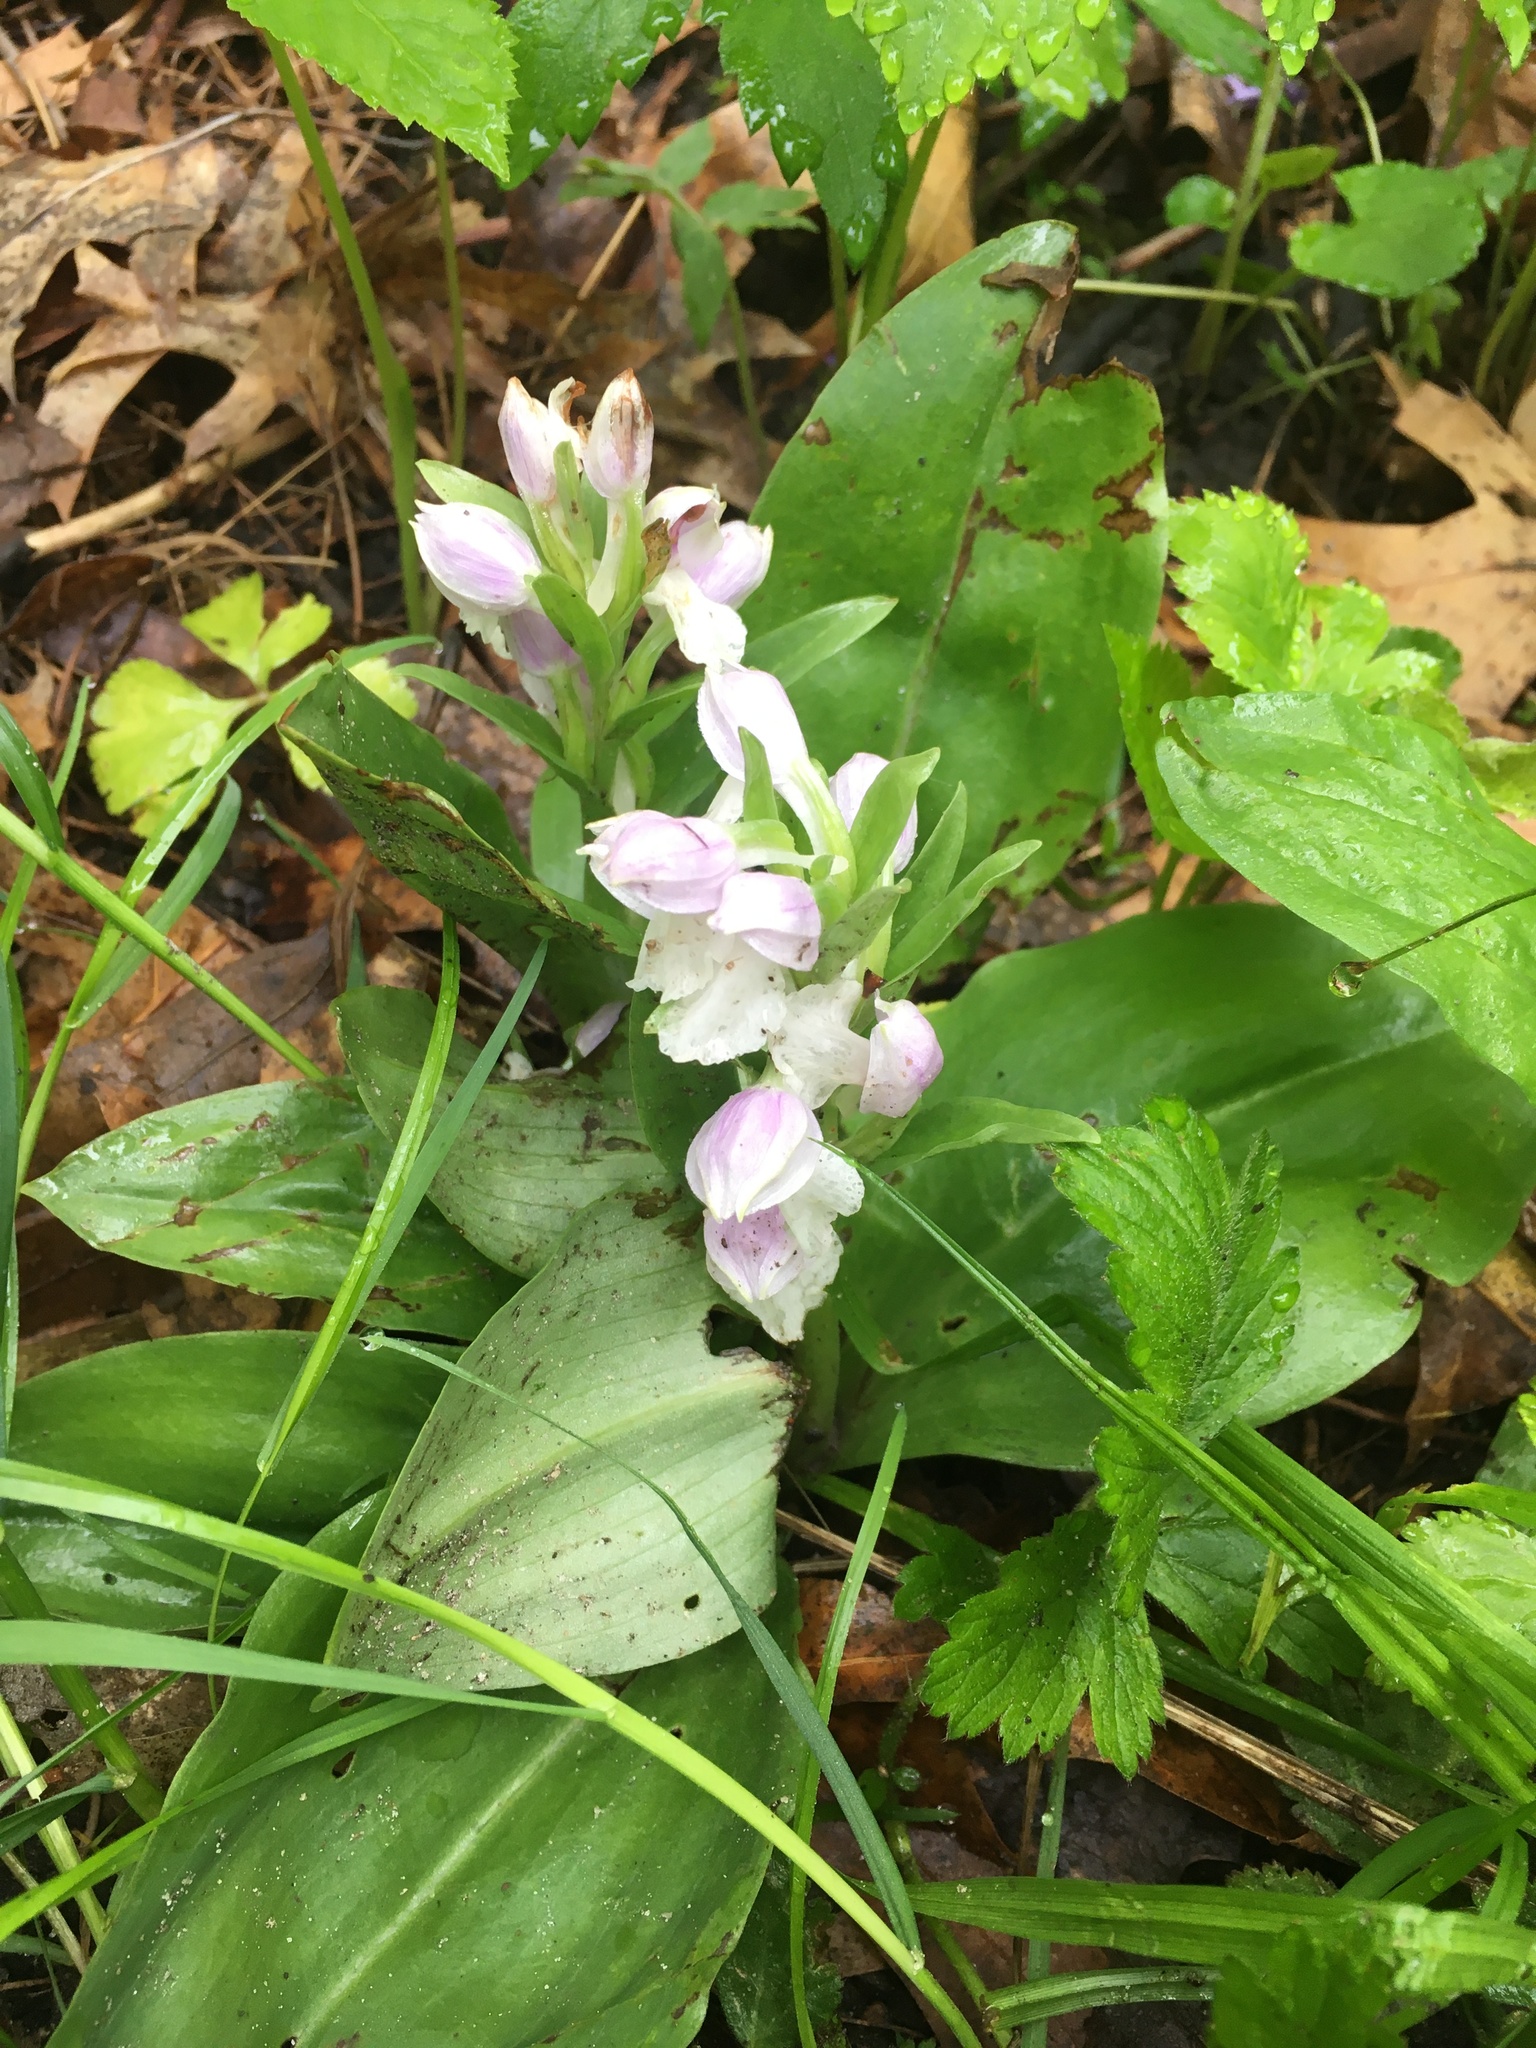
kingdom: Plantae
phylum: Tracheophyta
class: Liliopsida
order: Asparagales
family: Orchidaceae
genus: Galearis
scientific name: Galearis spectabilis
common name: Purple-hooded orchis
